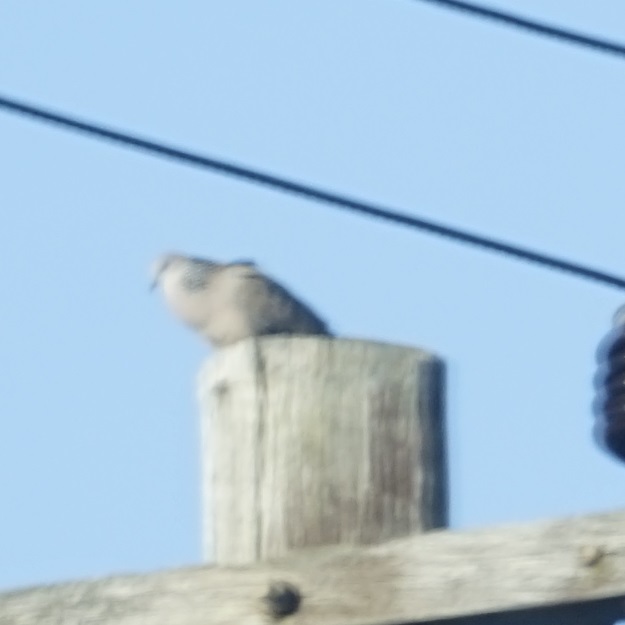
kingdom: Animalia
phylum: Chordata
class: Aves
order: Columbiformes
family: Columbidae
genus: Spilopelia
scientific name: Spilopelia chinensis
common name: Spotted dove
